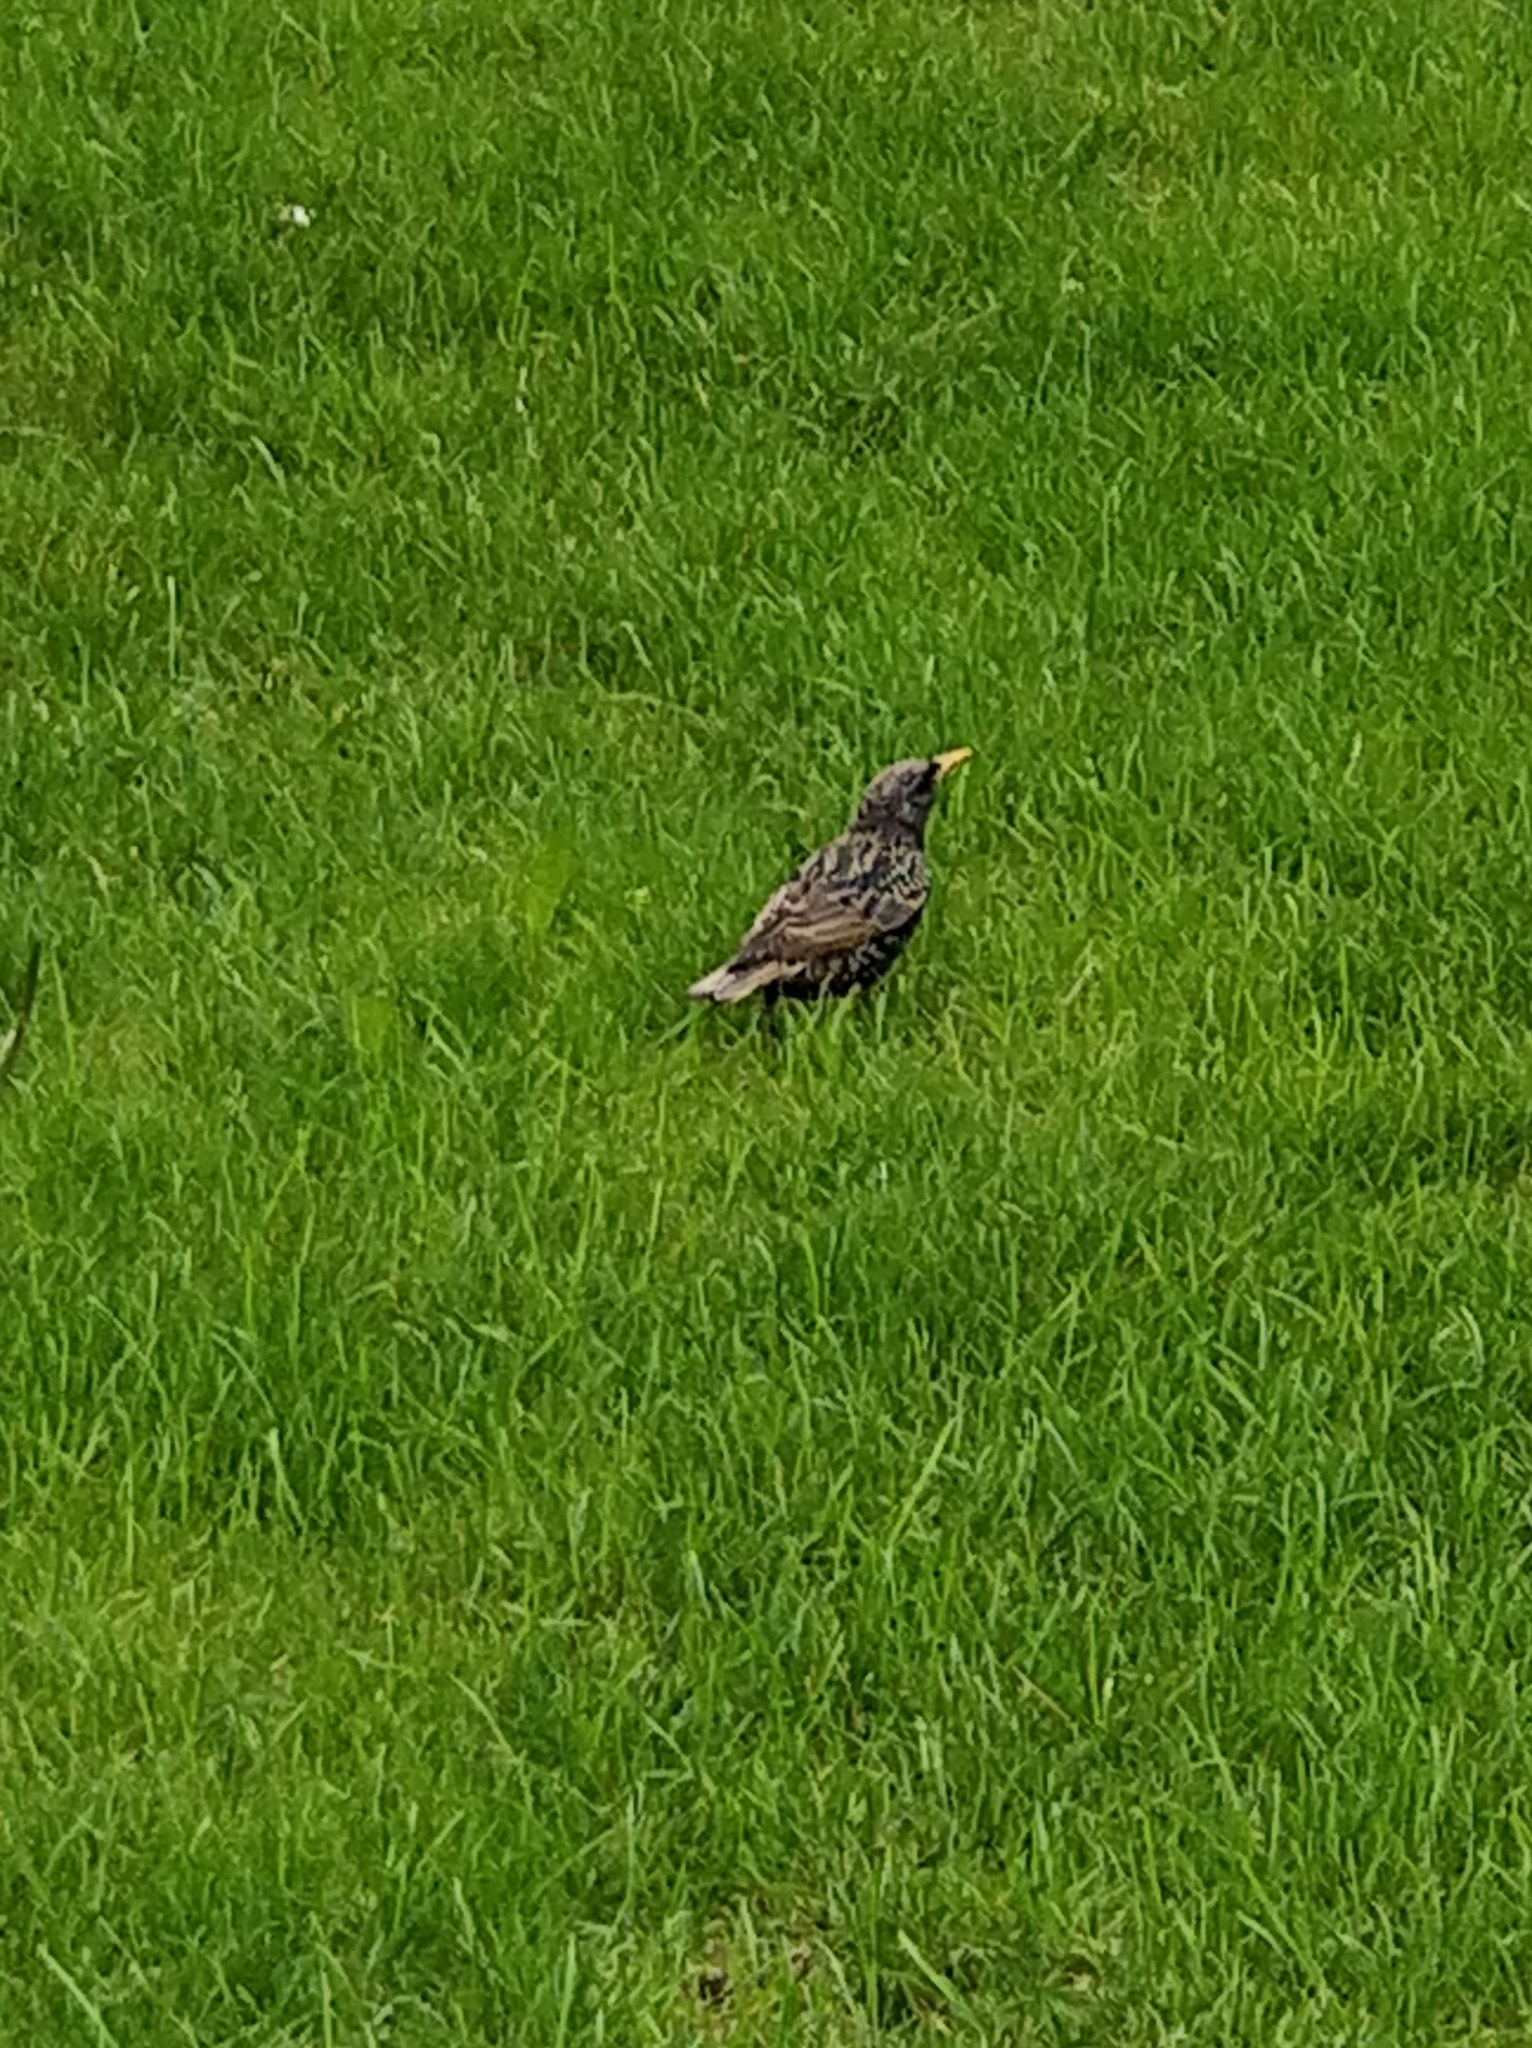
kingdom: Animalia
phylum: Chordata
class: Aves
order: Passeriformes
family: Sturnidae
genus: Sturnus
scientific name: Sturnus vulgaris
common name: Common starling
